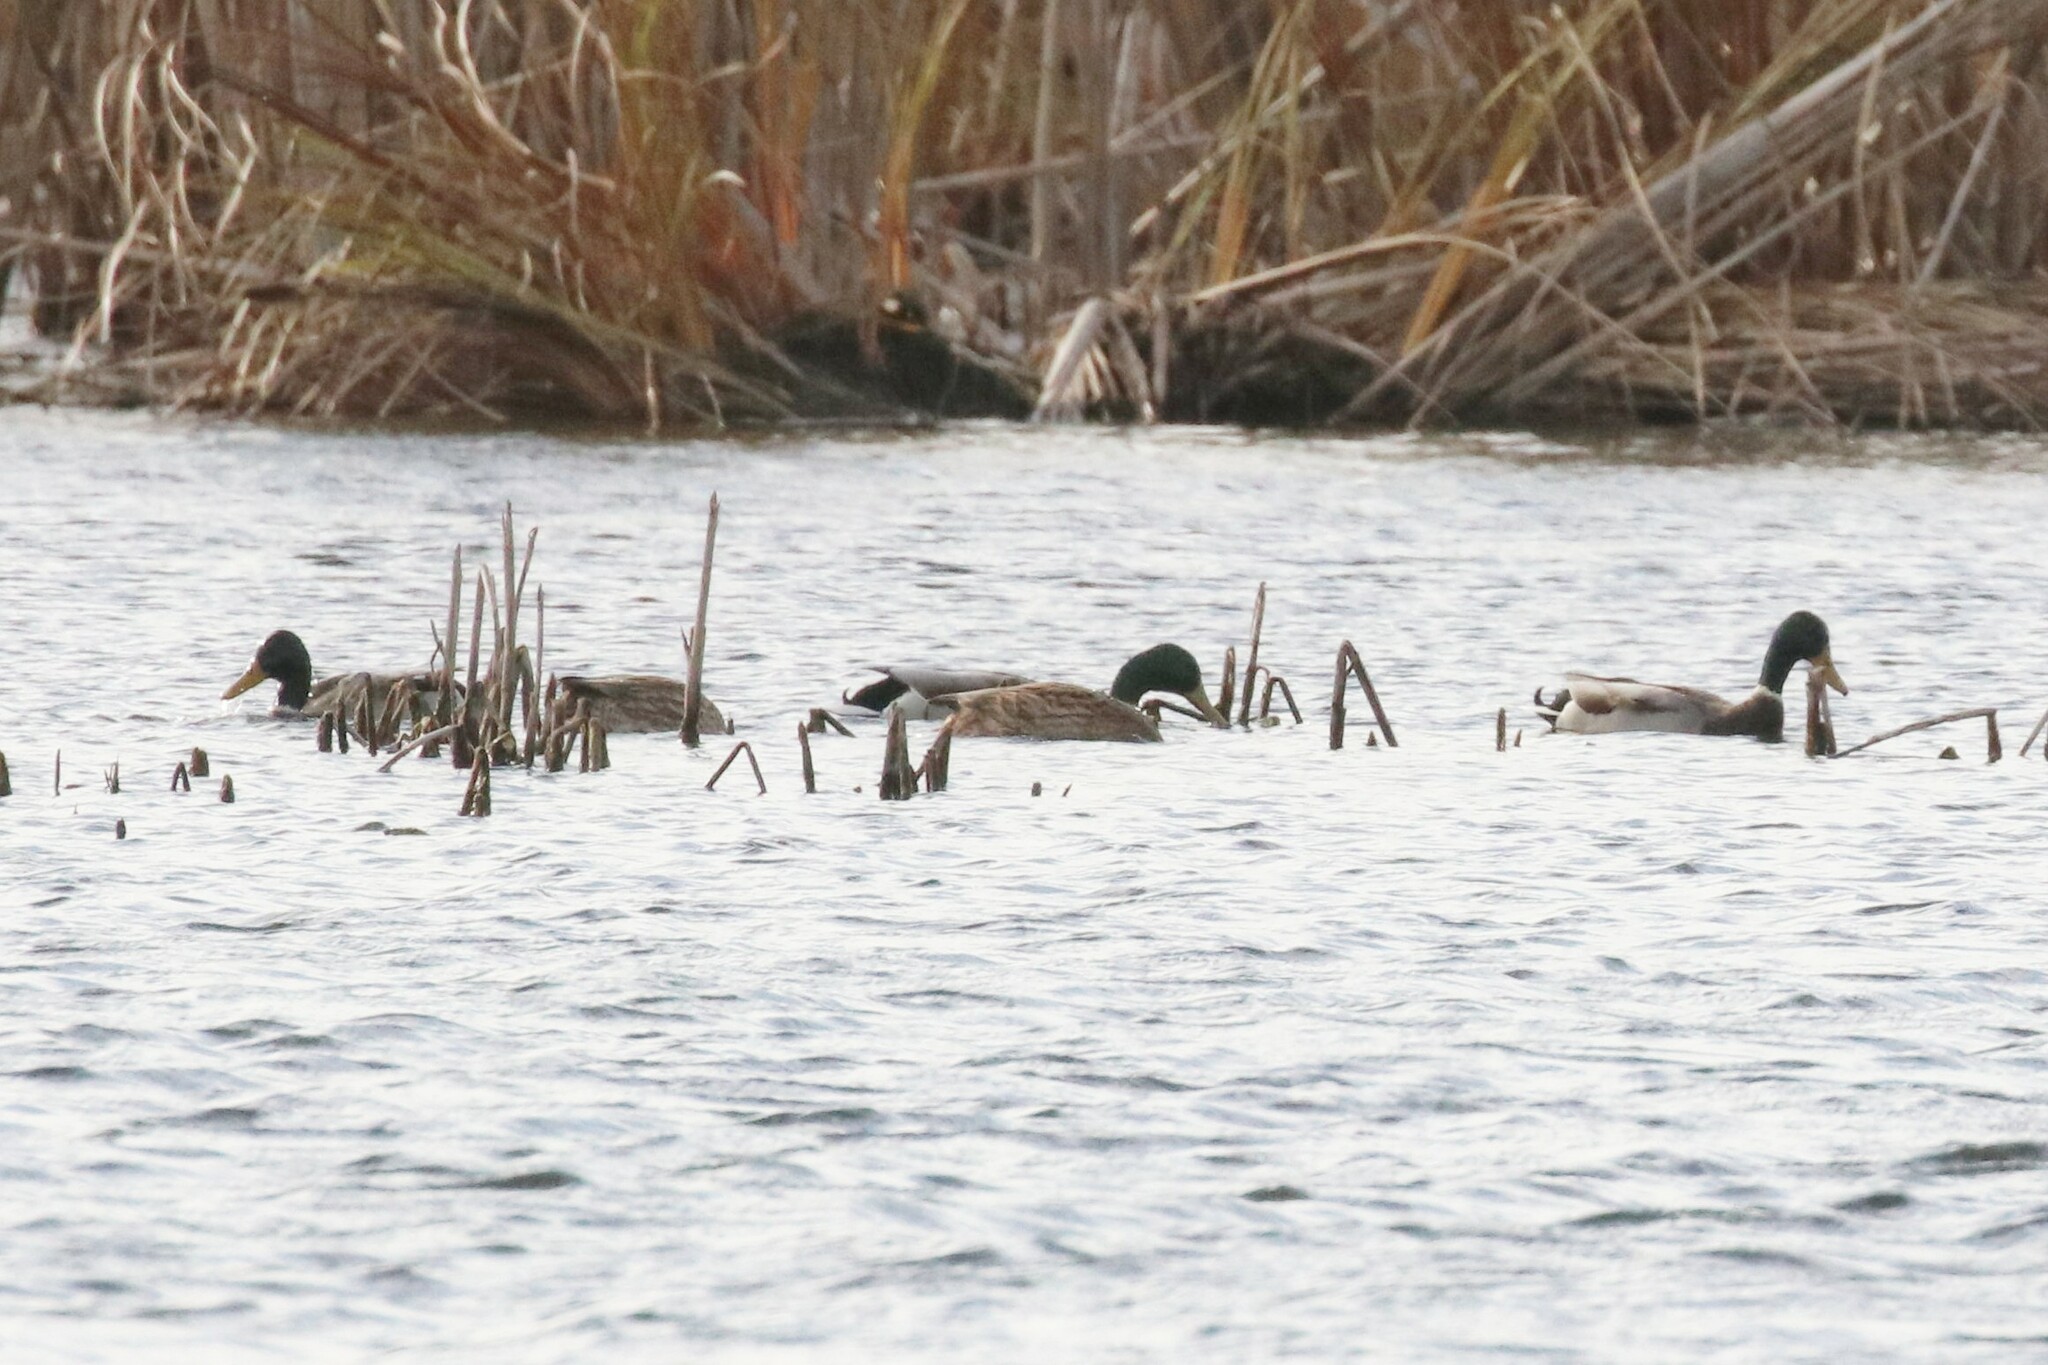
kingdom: Animalia
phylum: Chordata
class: Aves
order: Anseriformes
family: Anatidae
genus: Anas
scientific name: Anas platyrhynchos
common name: Mallard
